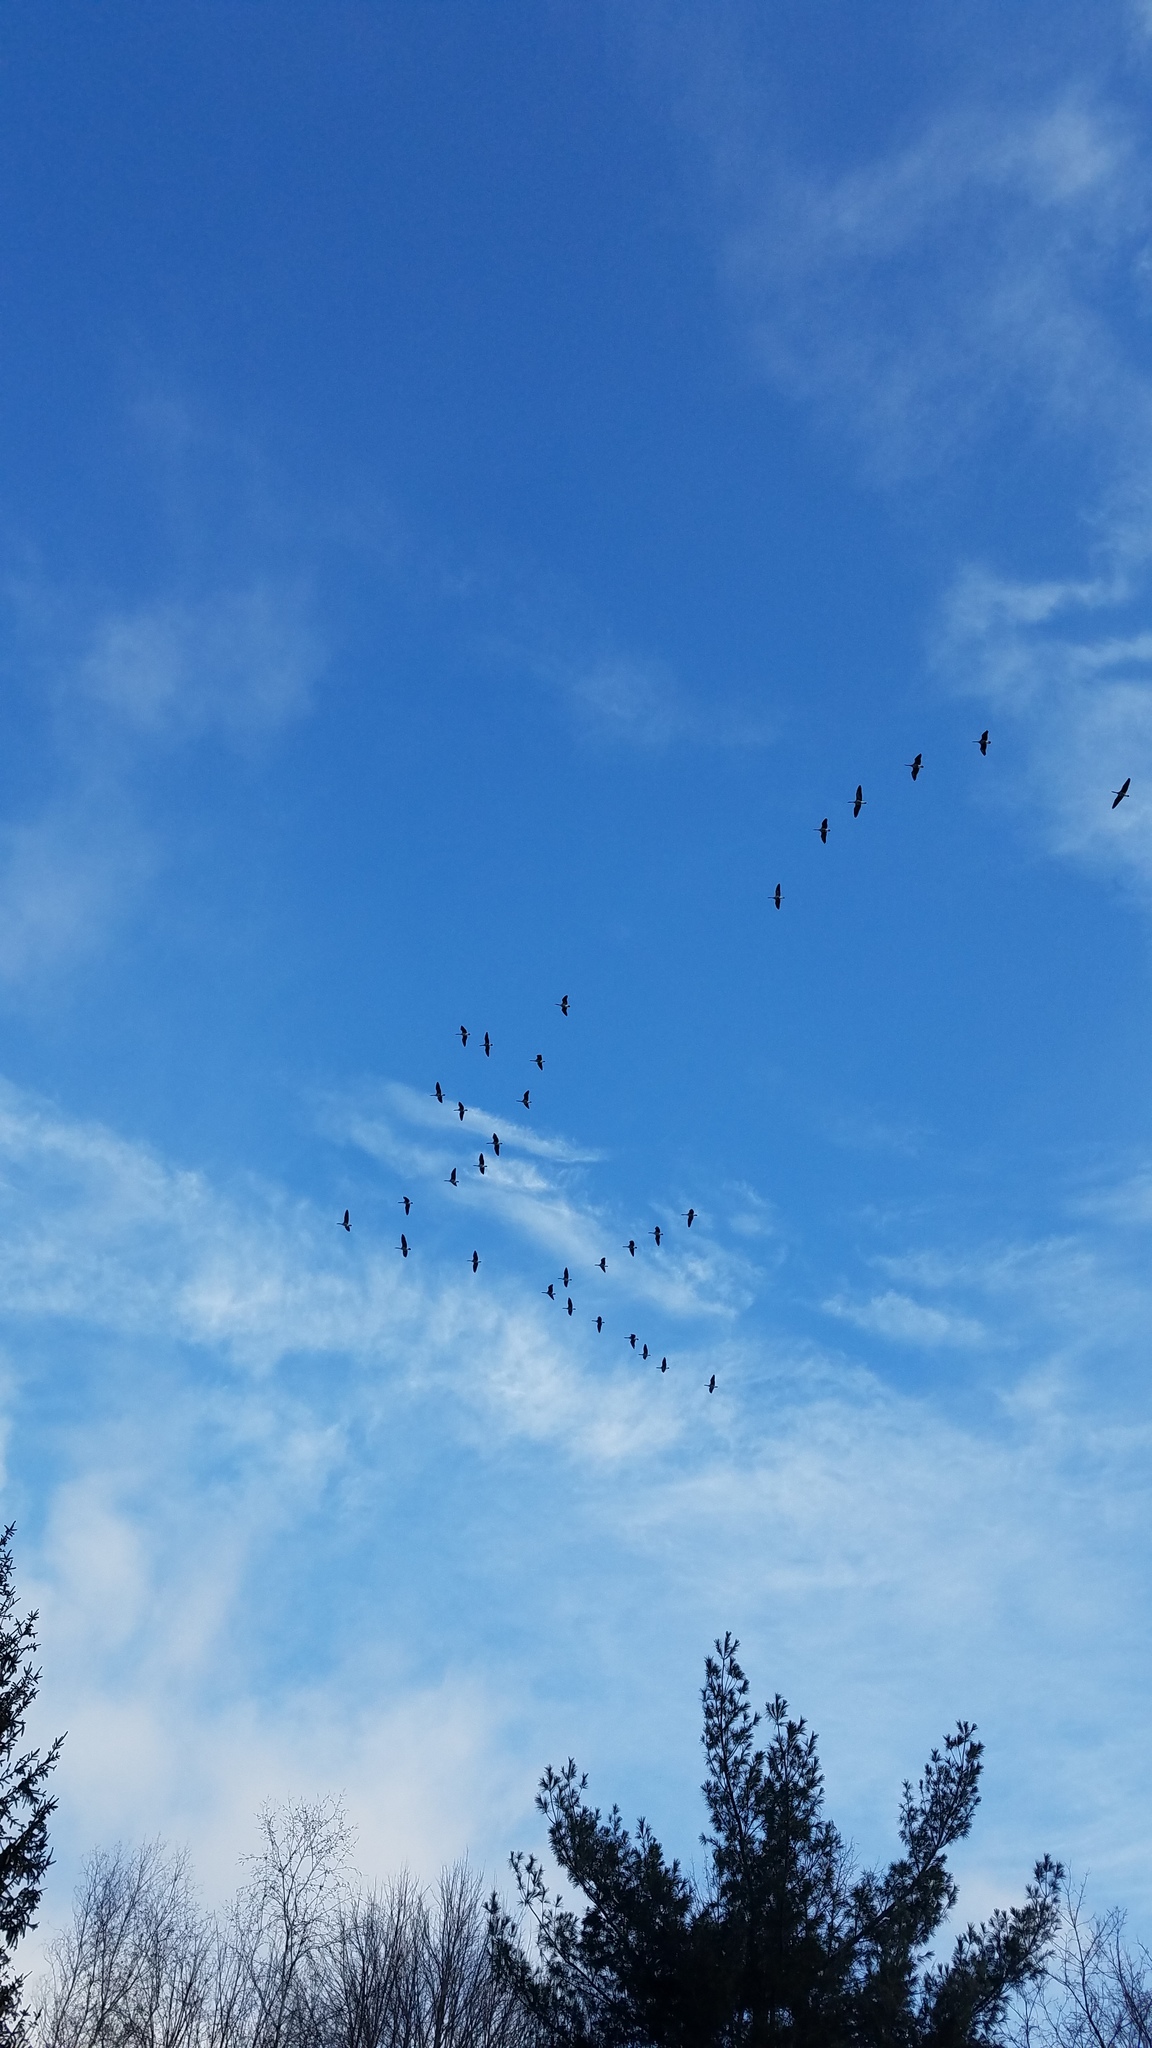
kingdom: Animalia
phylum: Chordata
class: Aves
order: Anseriformes
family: Anatidae
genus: Branta
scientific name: Branta canadensis
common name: Canada goose
